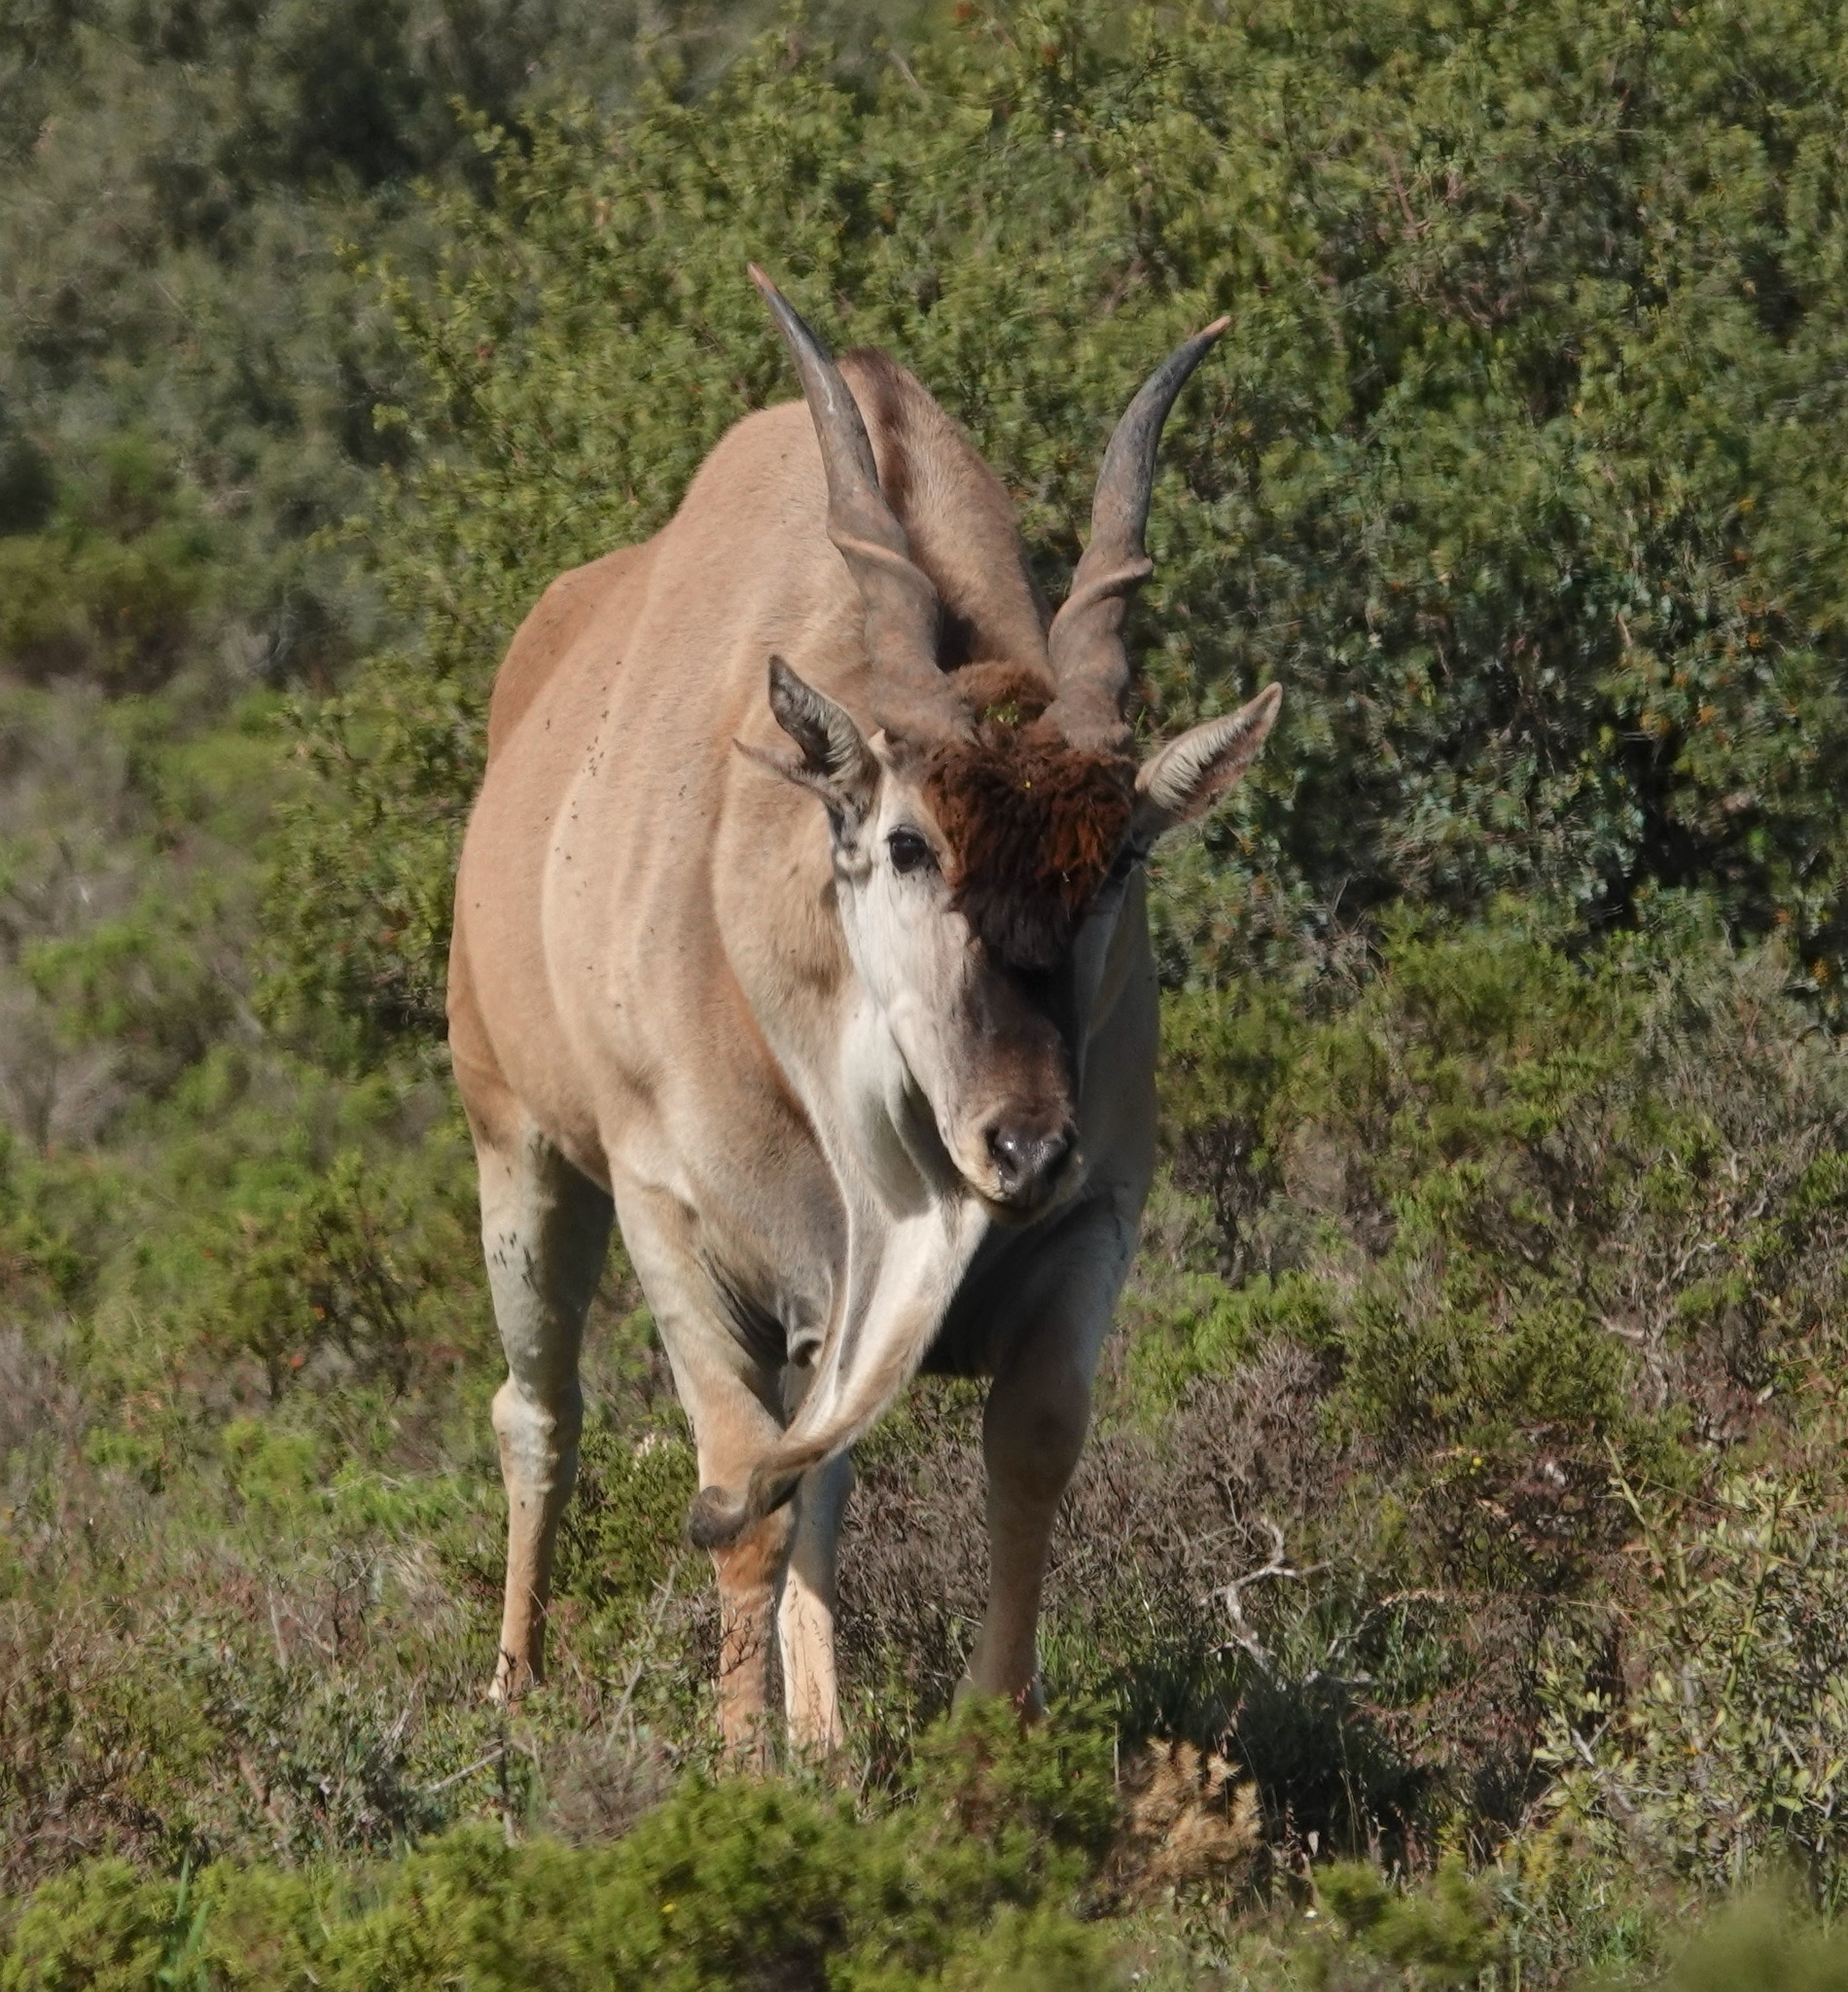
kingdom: Animalia
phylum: Chordata
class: Mammalia
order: Artiodactyla
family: Bovidae
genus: Taurotragus
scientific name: Taurotragus oryx
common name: Common eland
